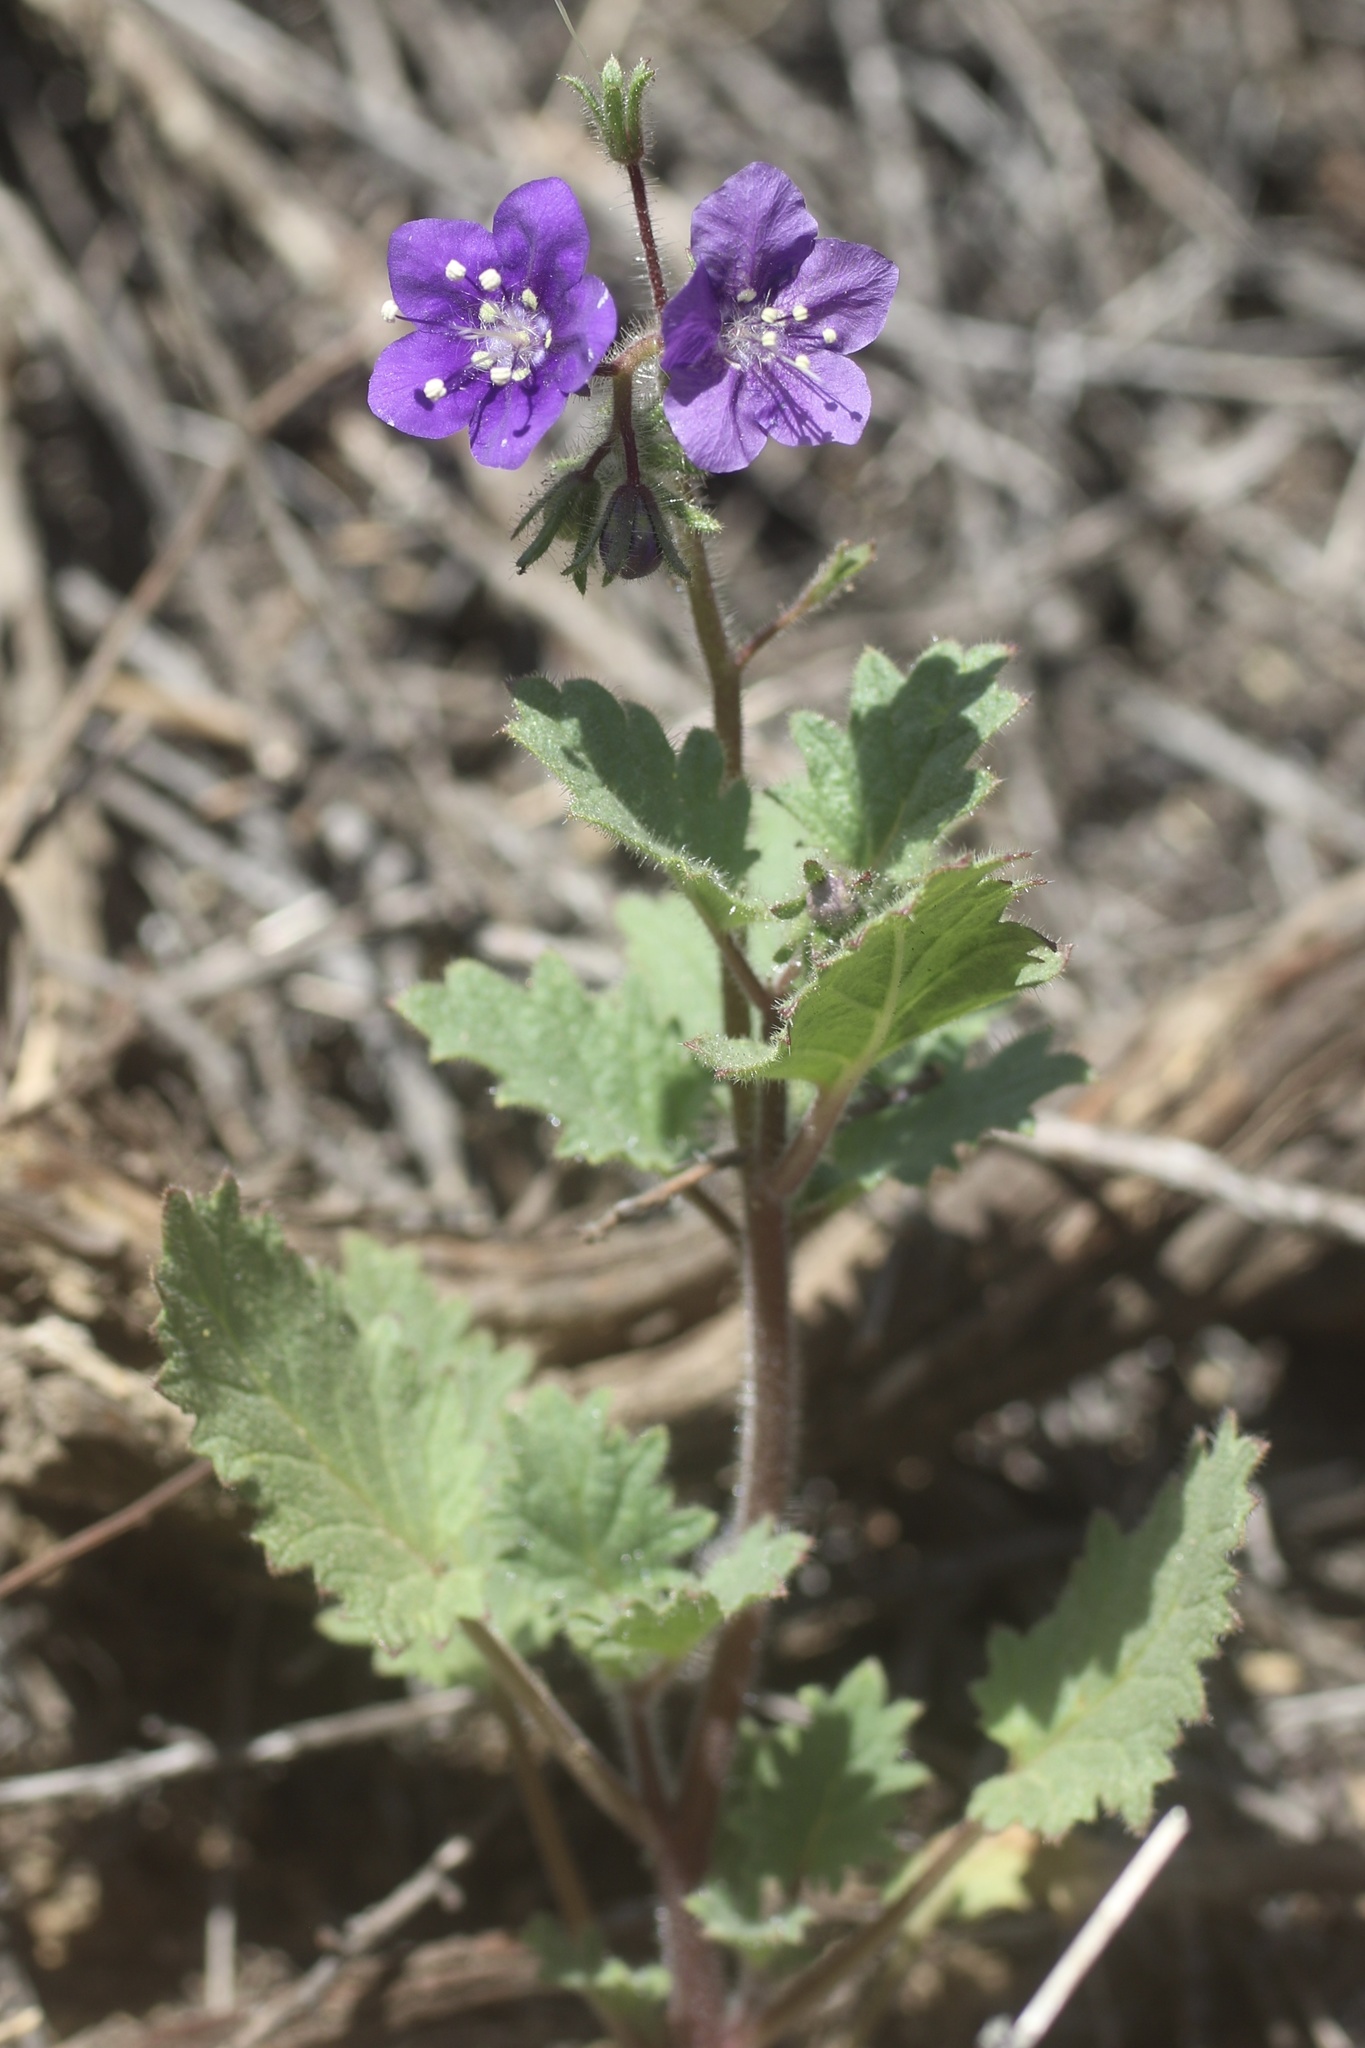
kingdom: Plantae
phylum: Tracheophyta
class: Magnoliopsida
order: Boraginales
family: Hydrophyllaceae
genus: Phacelia
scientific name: Phacelia parryi
